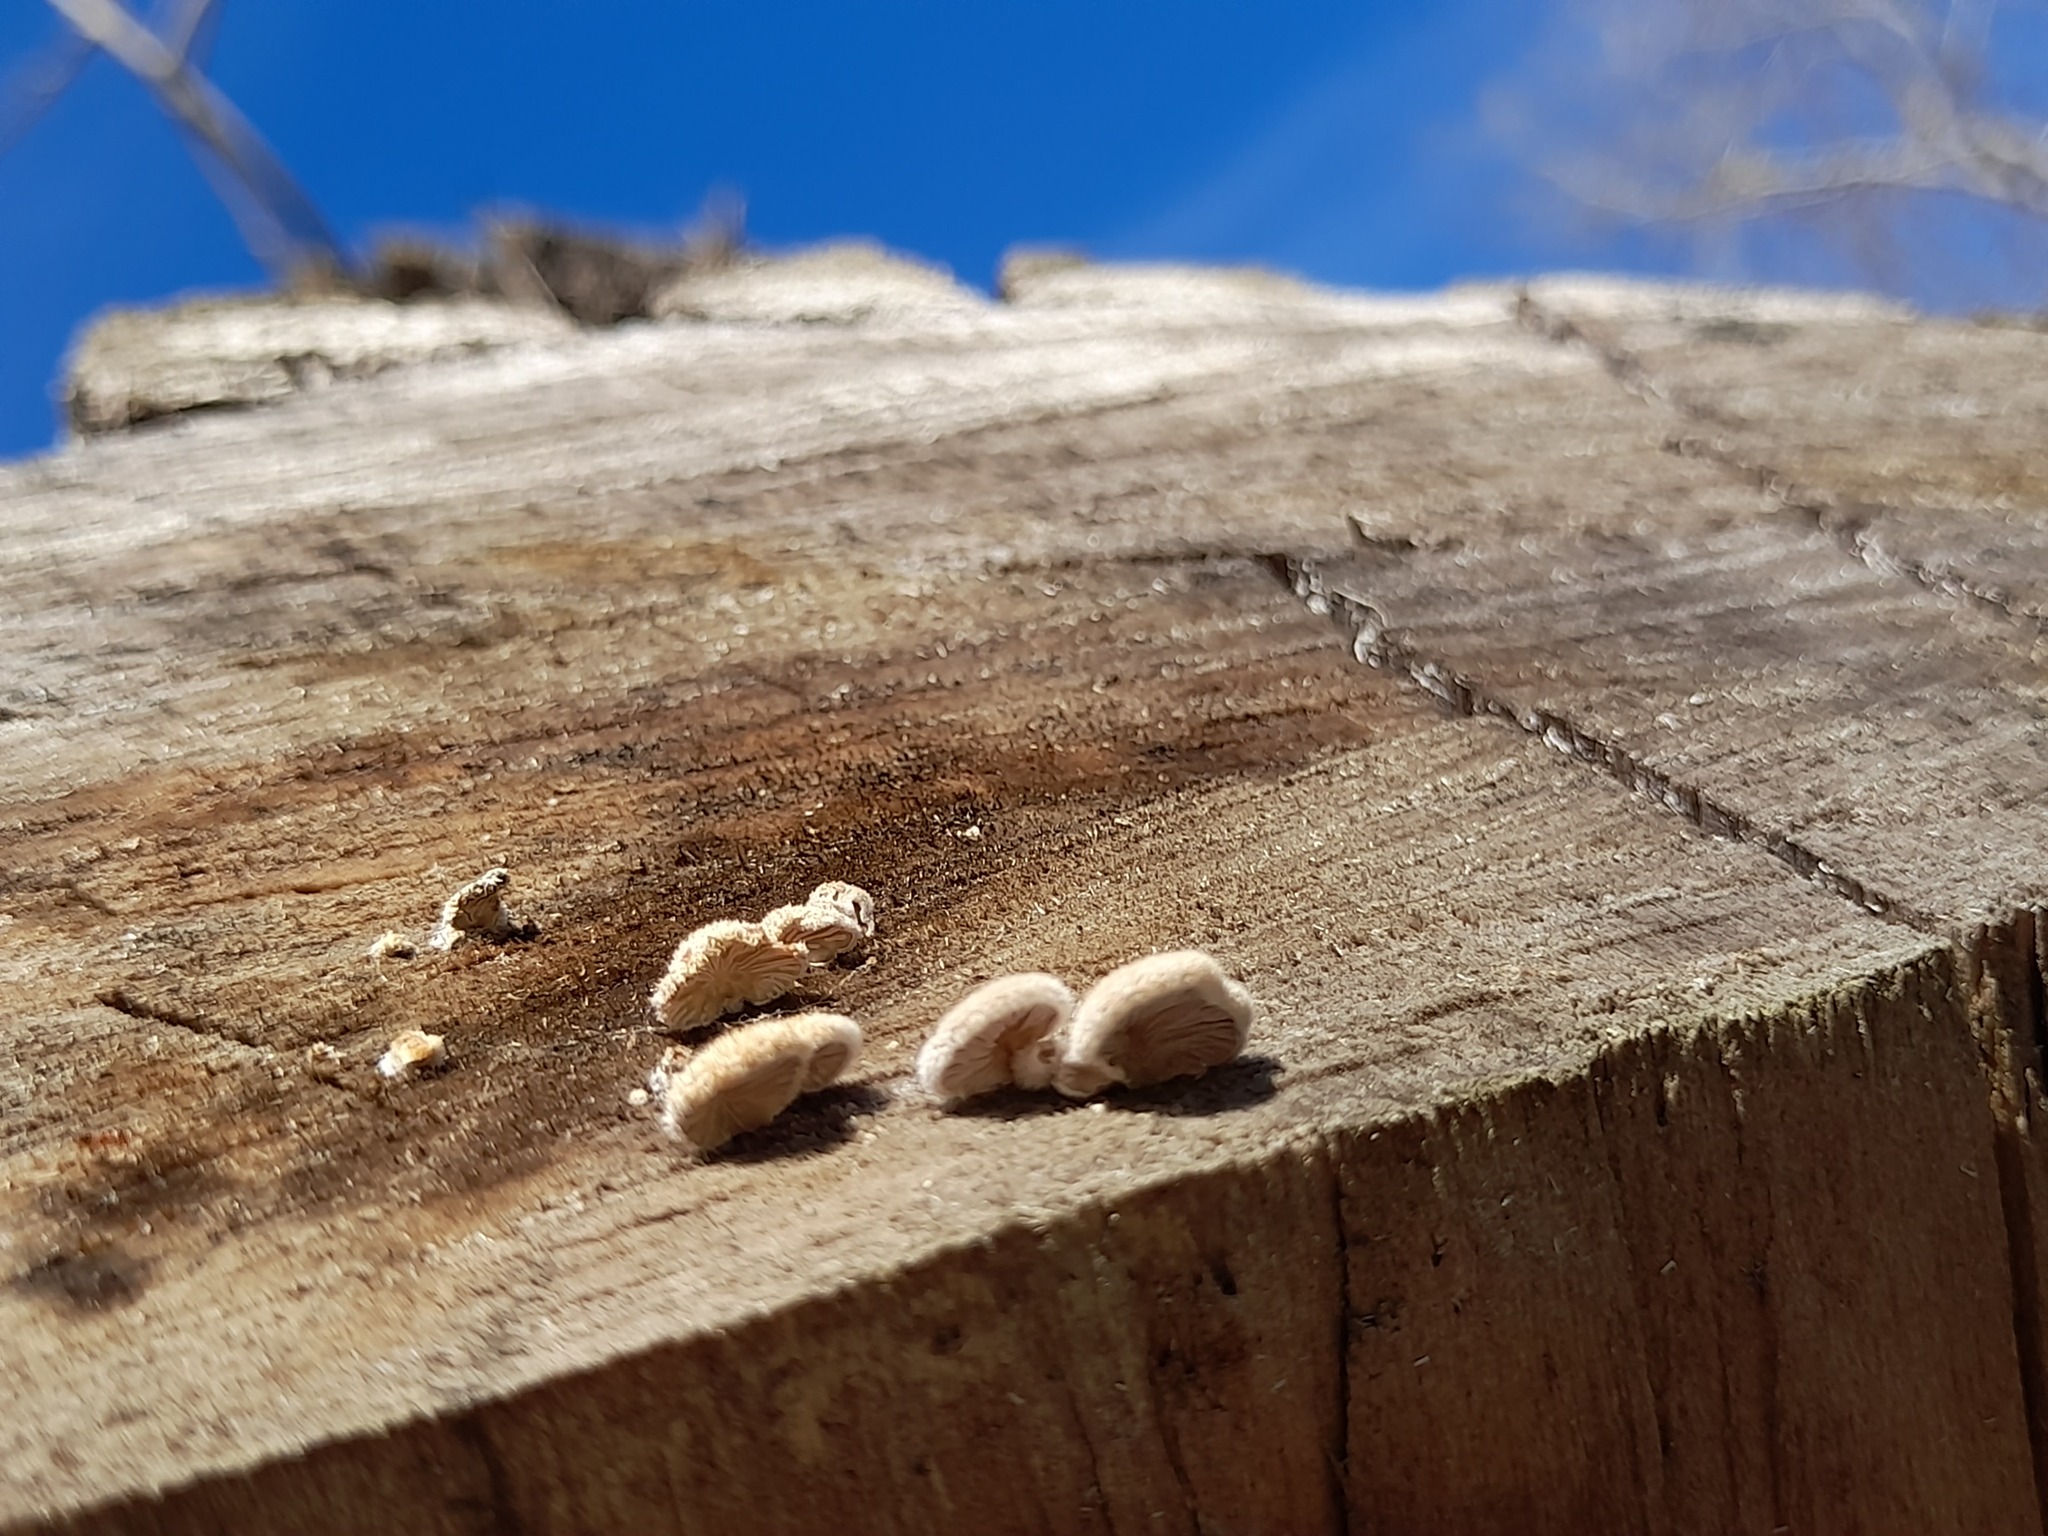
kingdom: Fungi
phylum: Basidiomycota
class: Agaricomycetes
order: Agaricales
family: Schizophyllaceae
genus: Schizophyllum
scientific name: Schizophyllum commune
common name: Common porecrust
